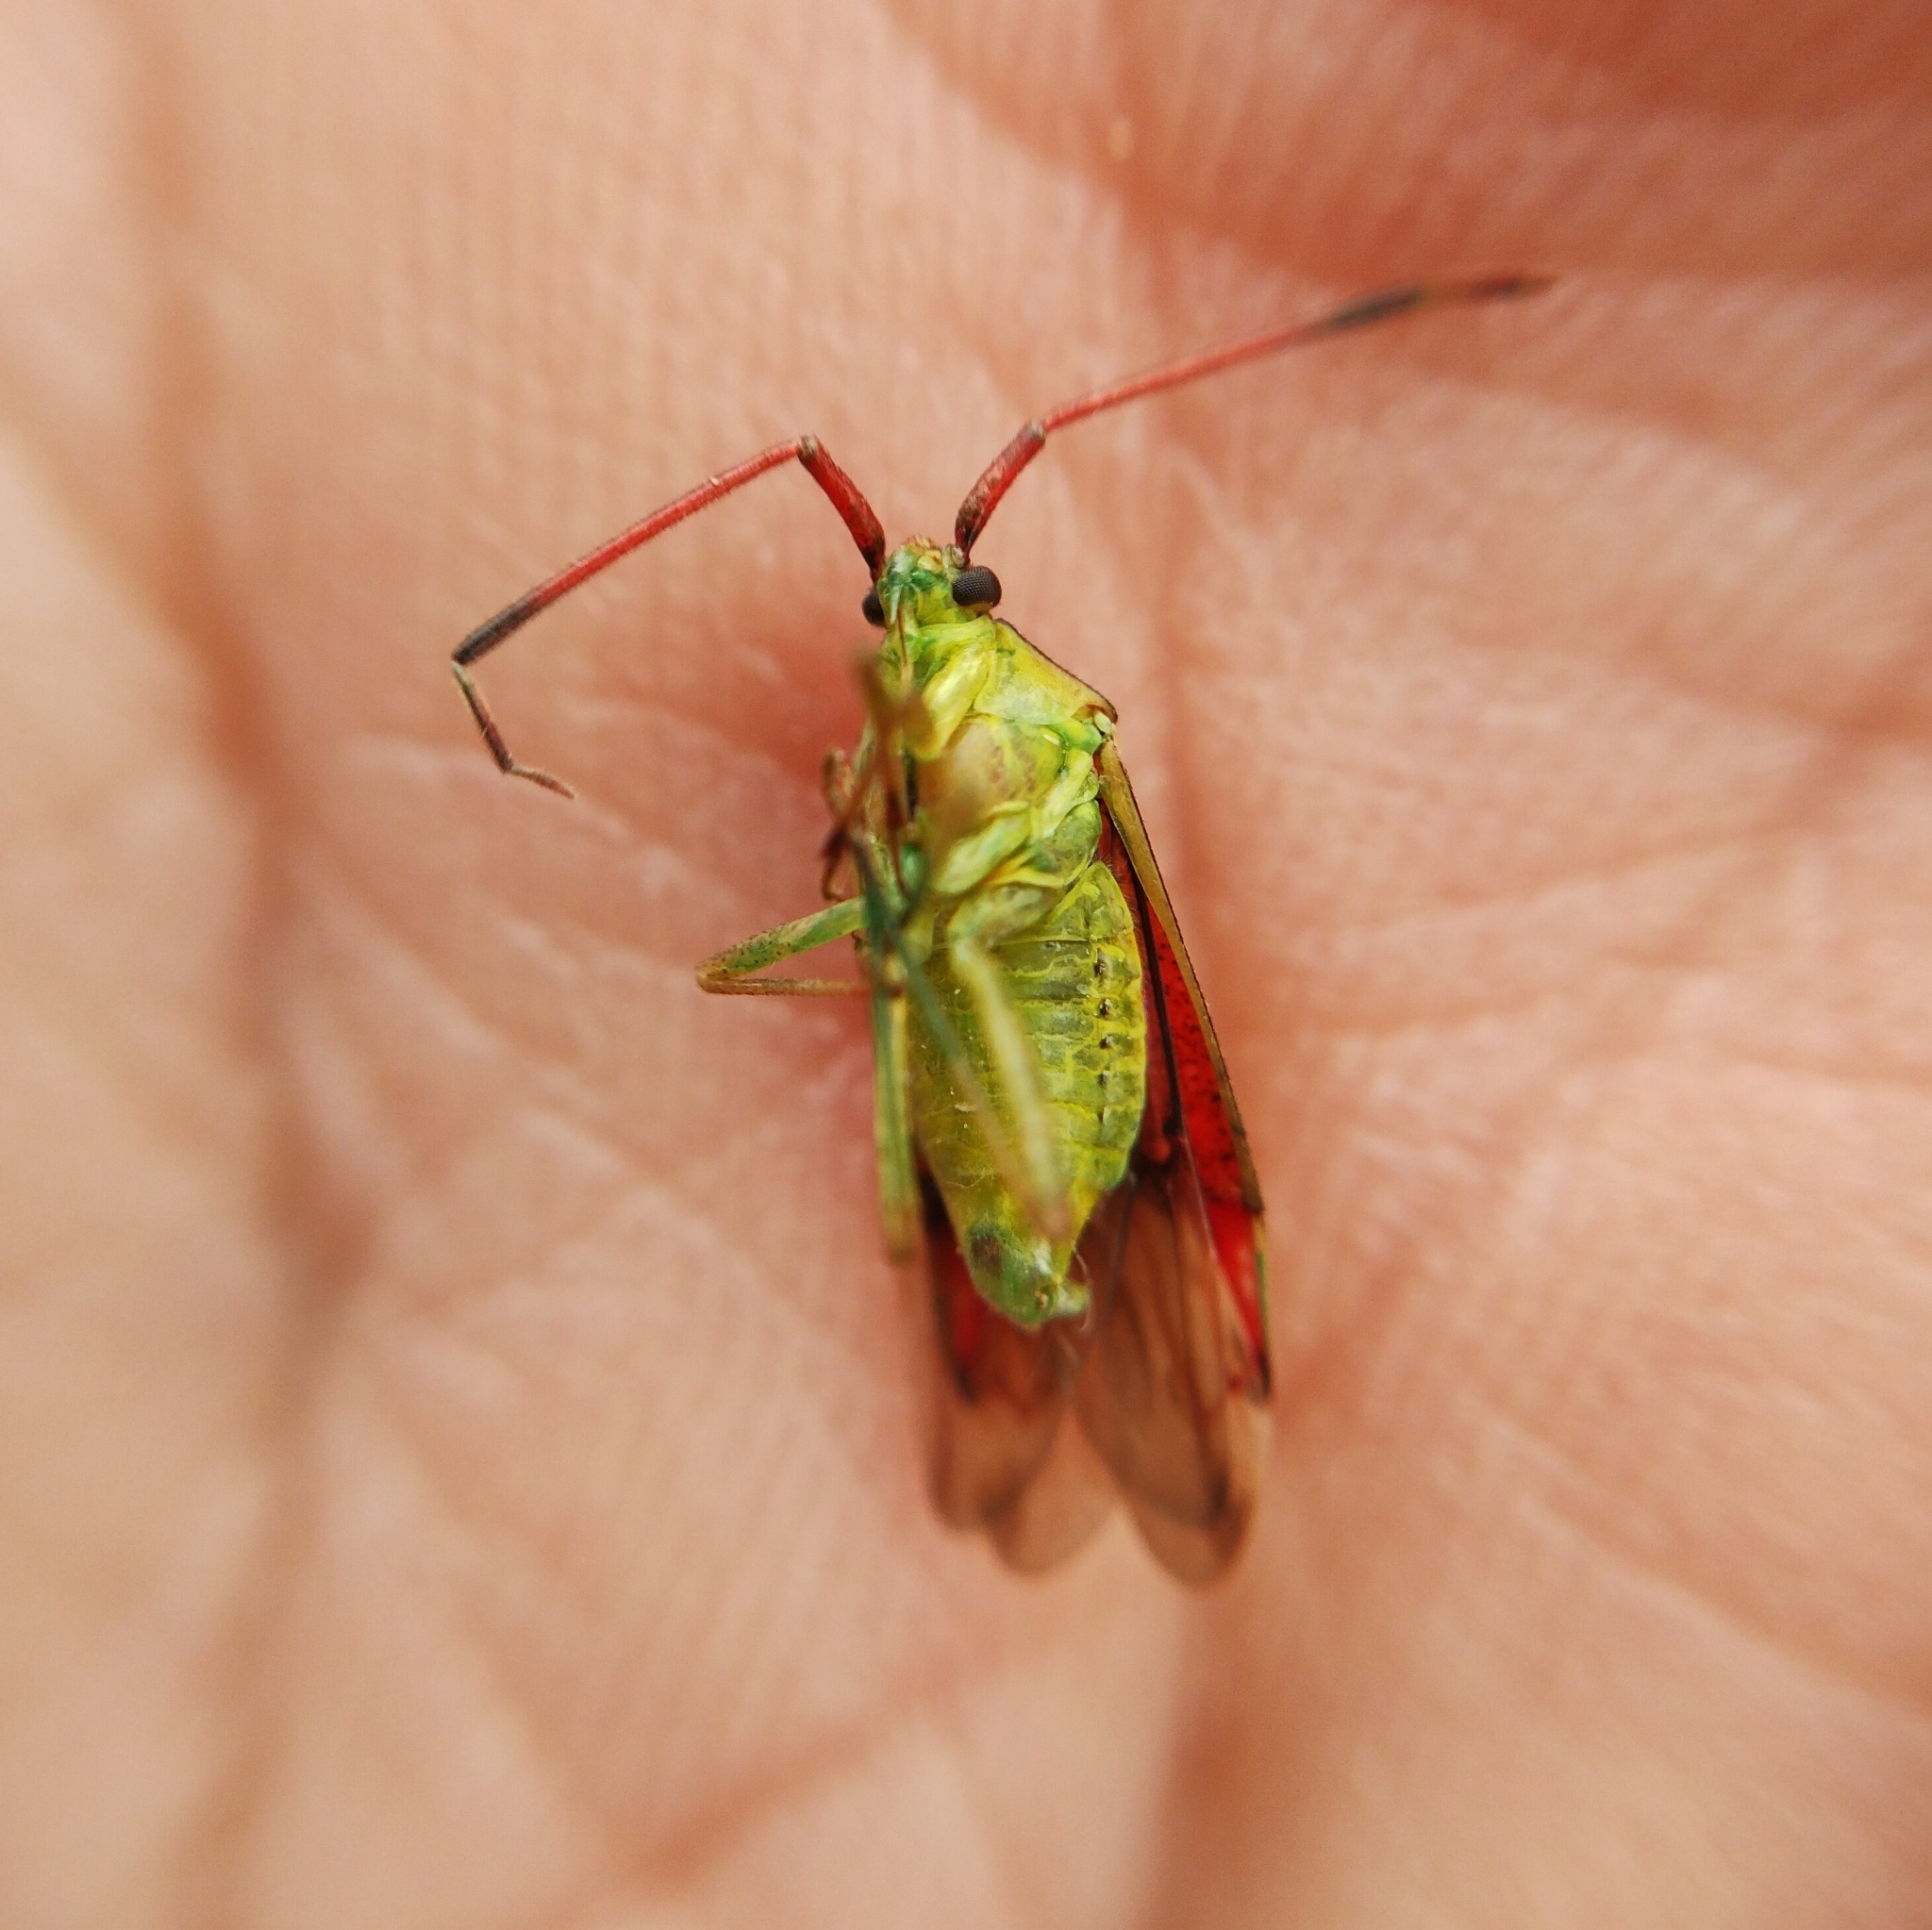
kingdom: Animalia
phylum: Arthropoda
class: Insecta
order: Hemiptera
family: Miridae
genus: Pantilius
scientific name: Pantilius tunicatus
